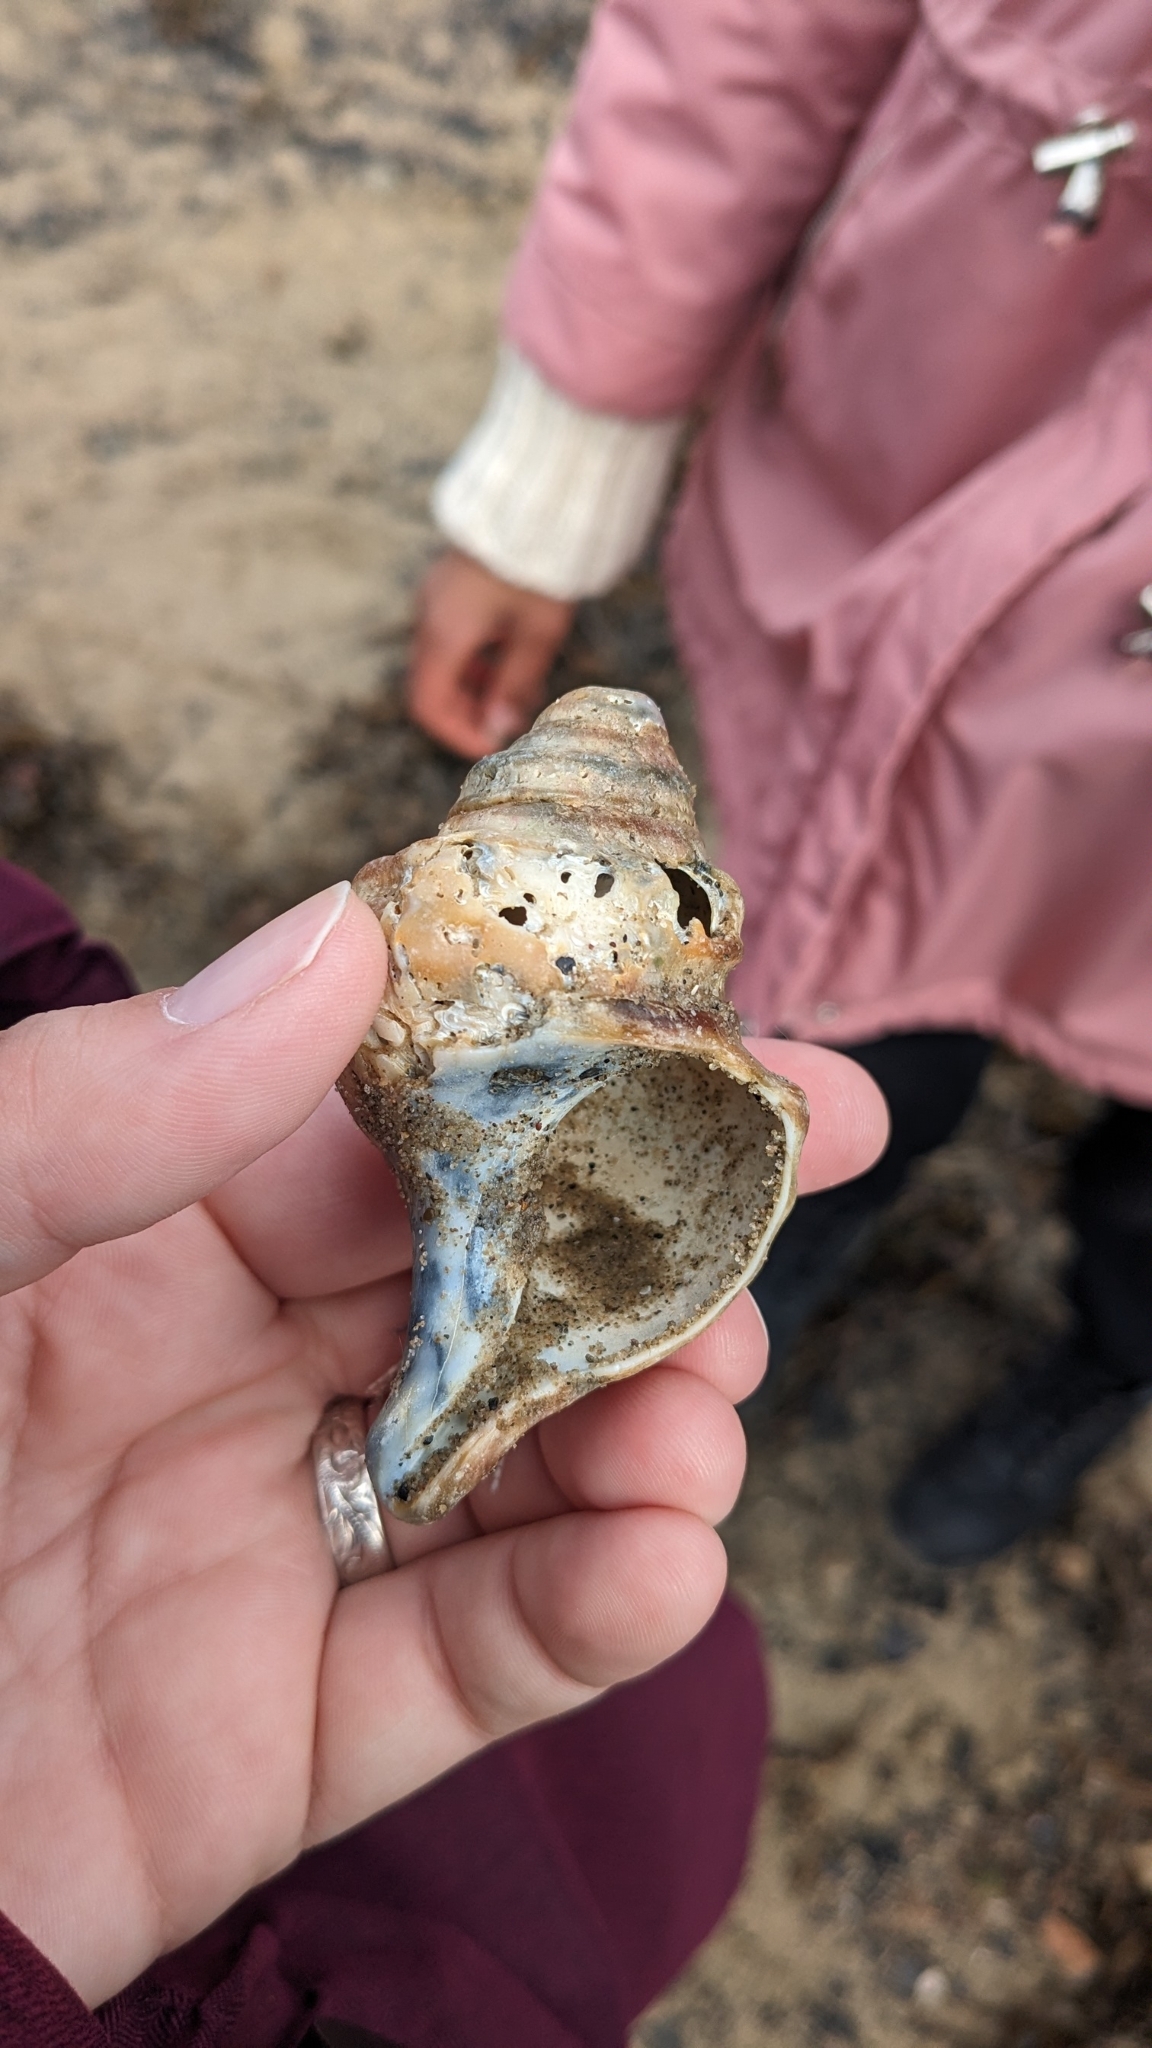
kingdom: Animalia
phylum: Mollusca
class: Gastropoda
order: Neogastropoda
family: Buccinidae
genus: Neptunea
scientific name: Neptunea decemcostata
